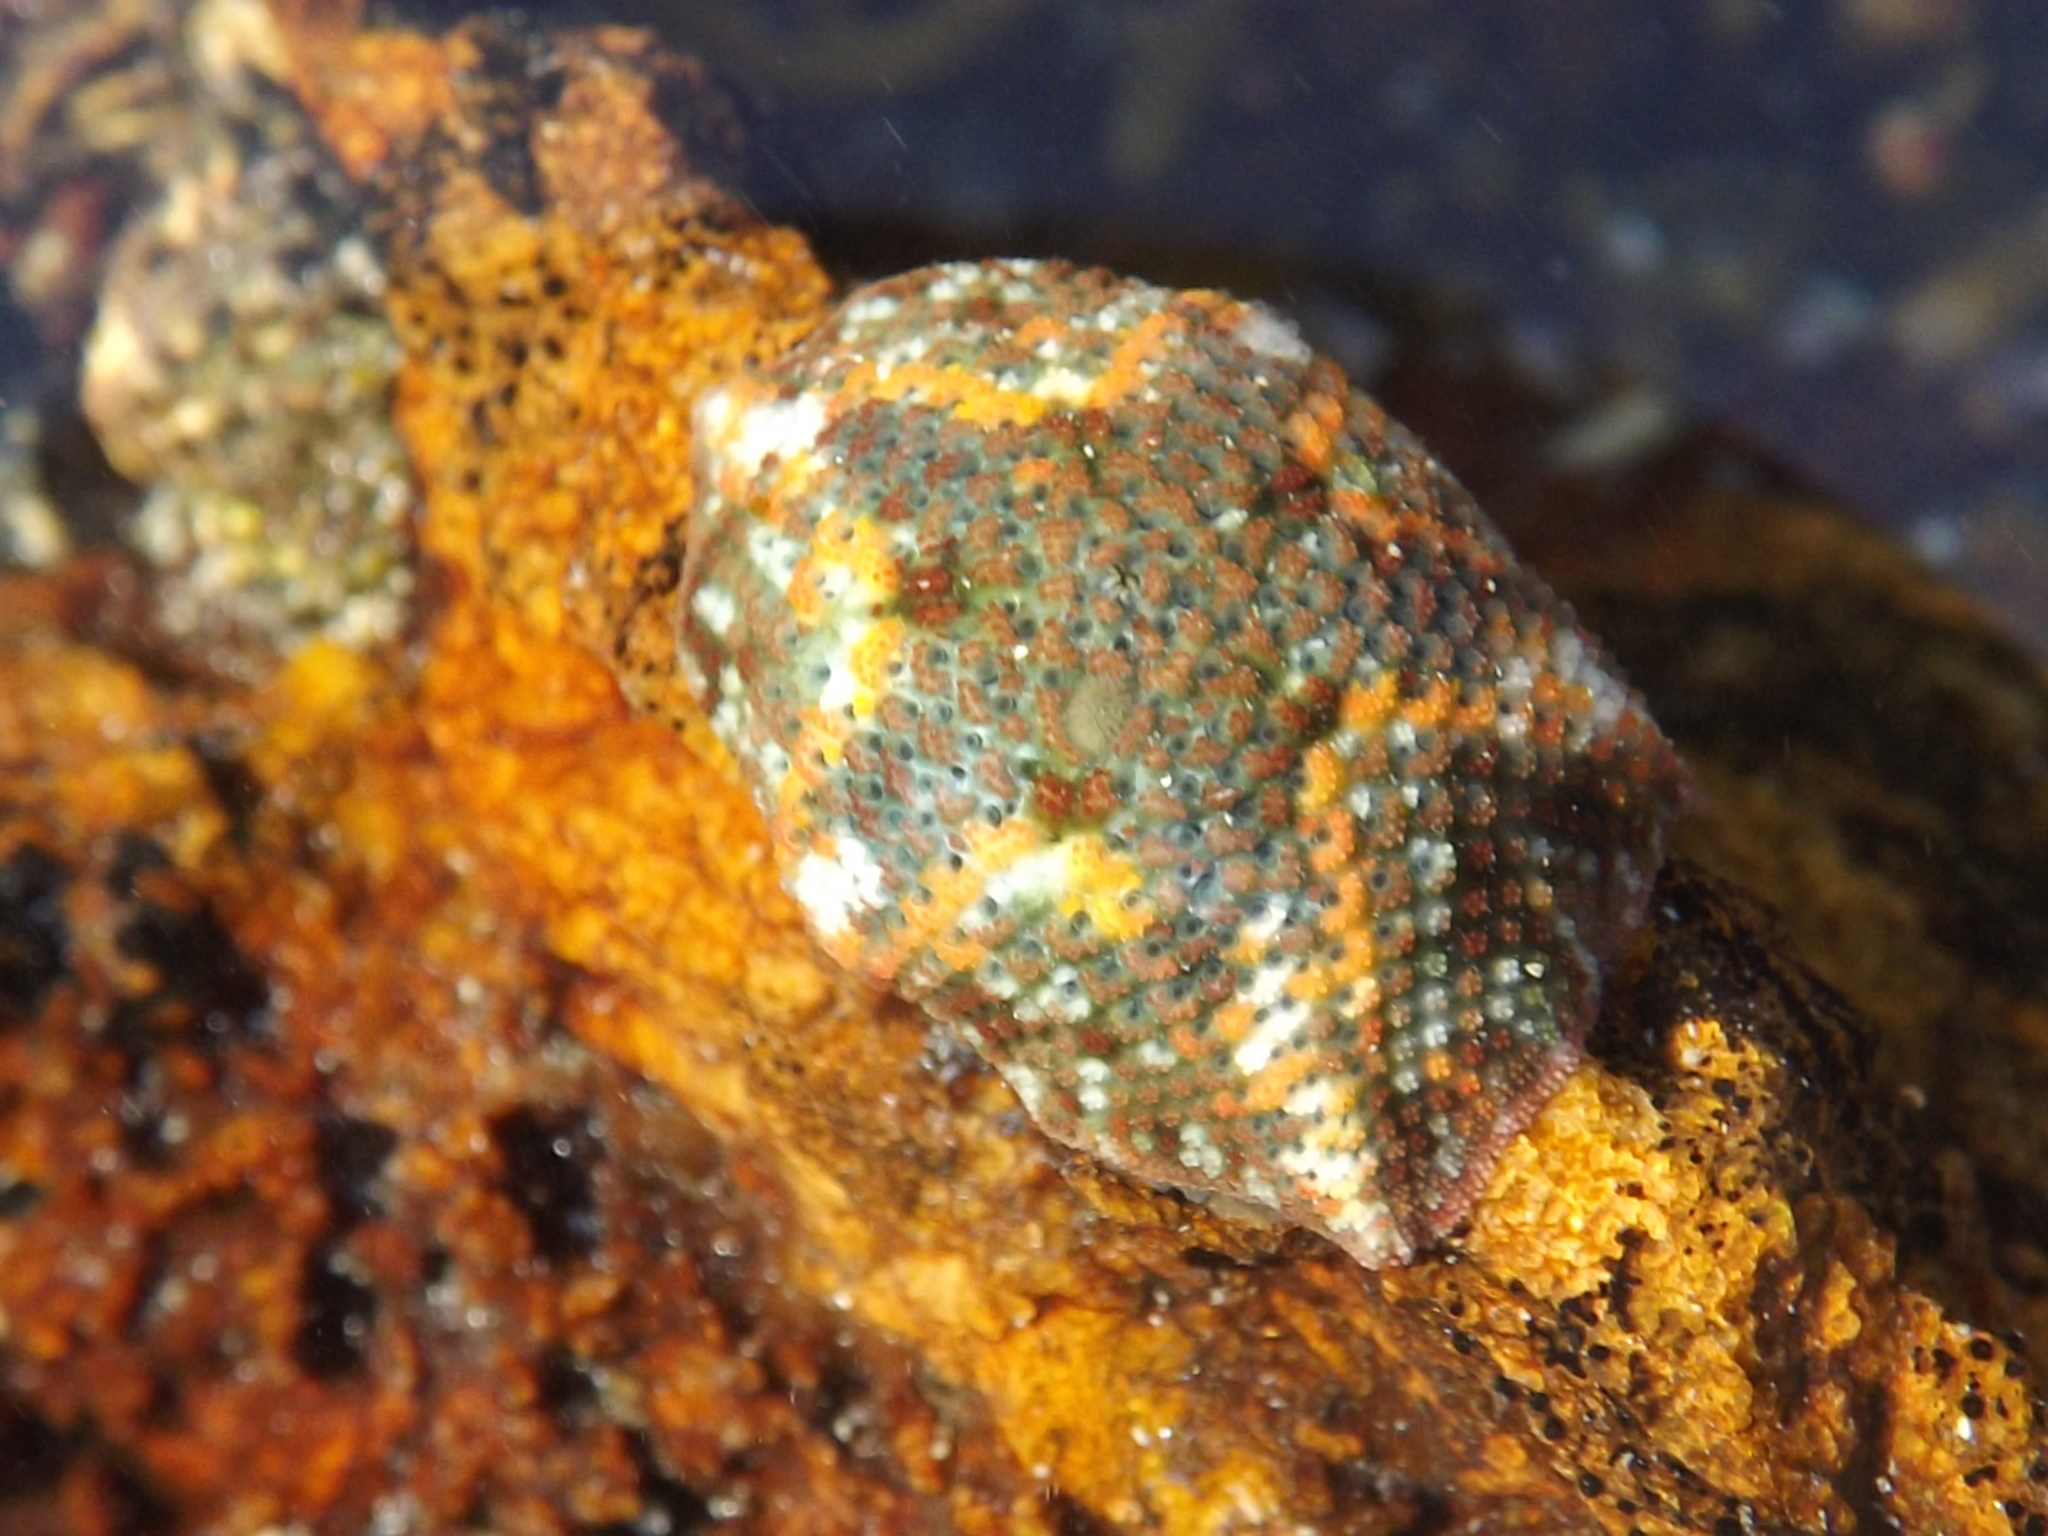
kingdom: Animalia
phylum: Echinodermata
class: Asteroidea
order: Valvatida
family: Asterinidae
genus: Parvulastra
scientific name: Parvulastra exigua
